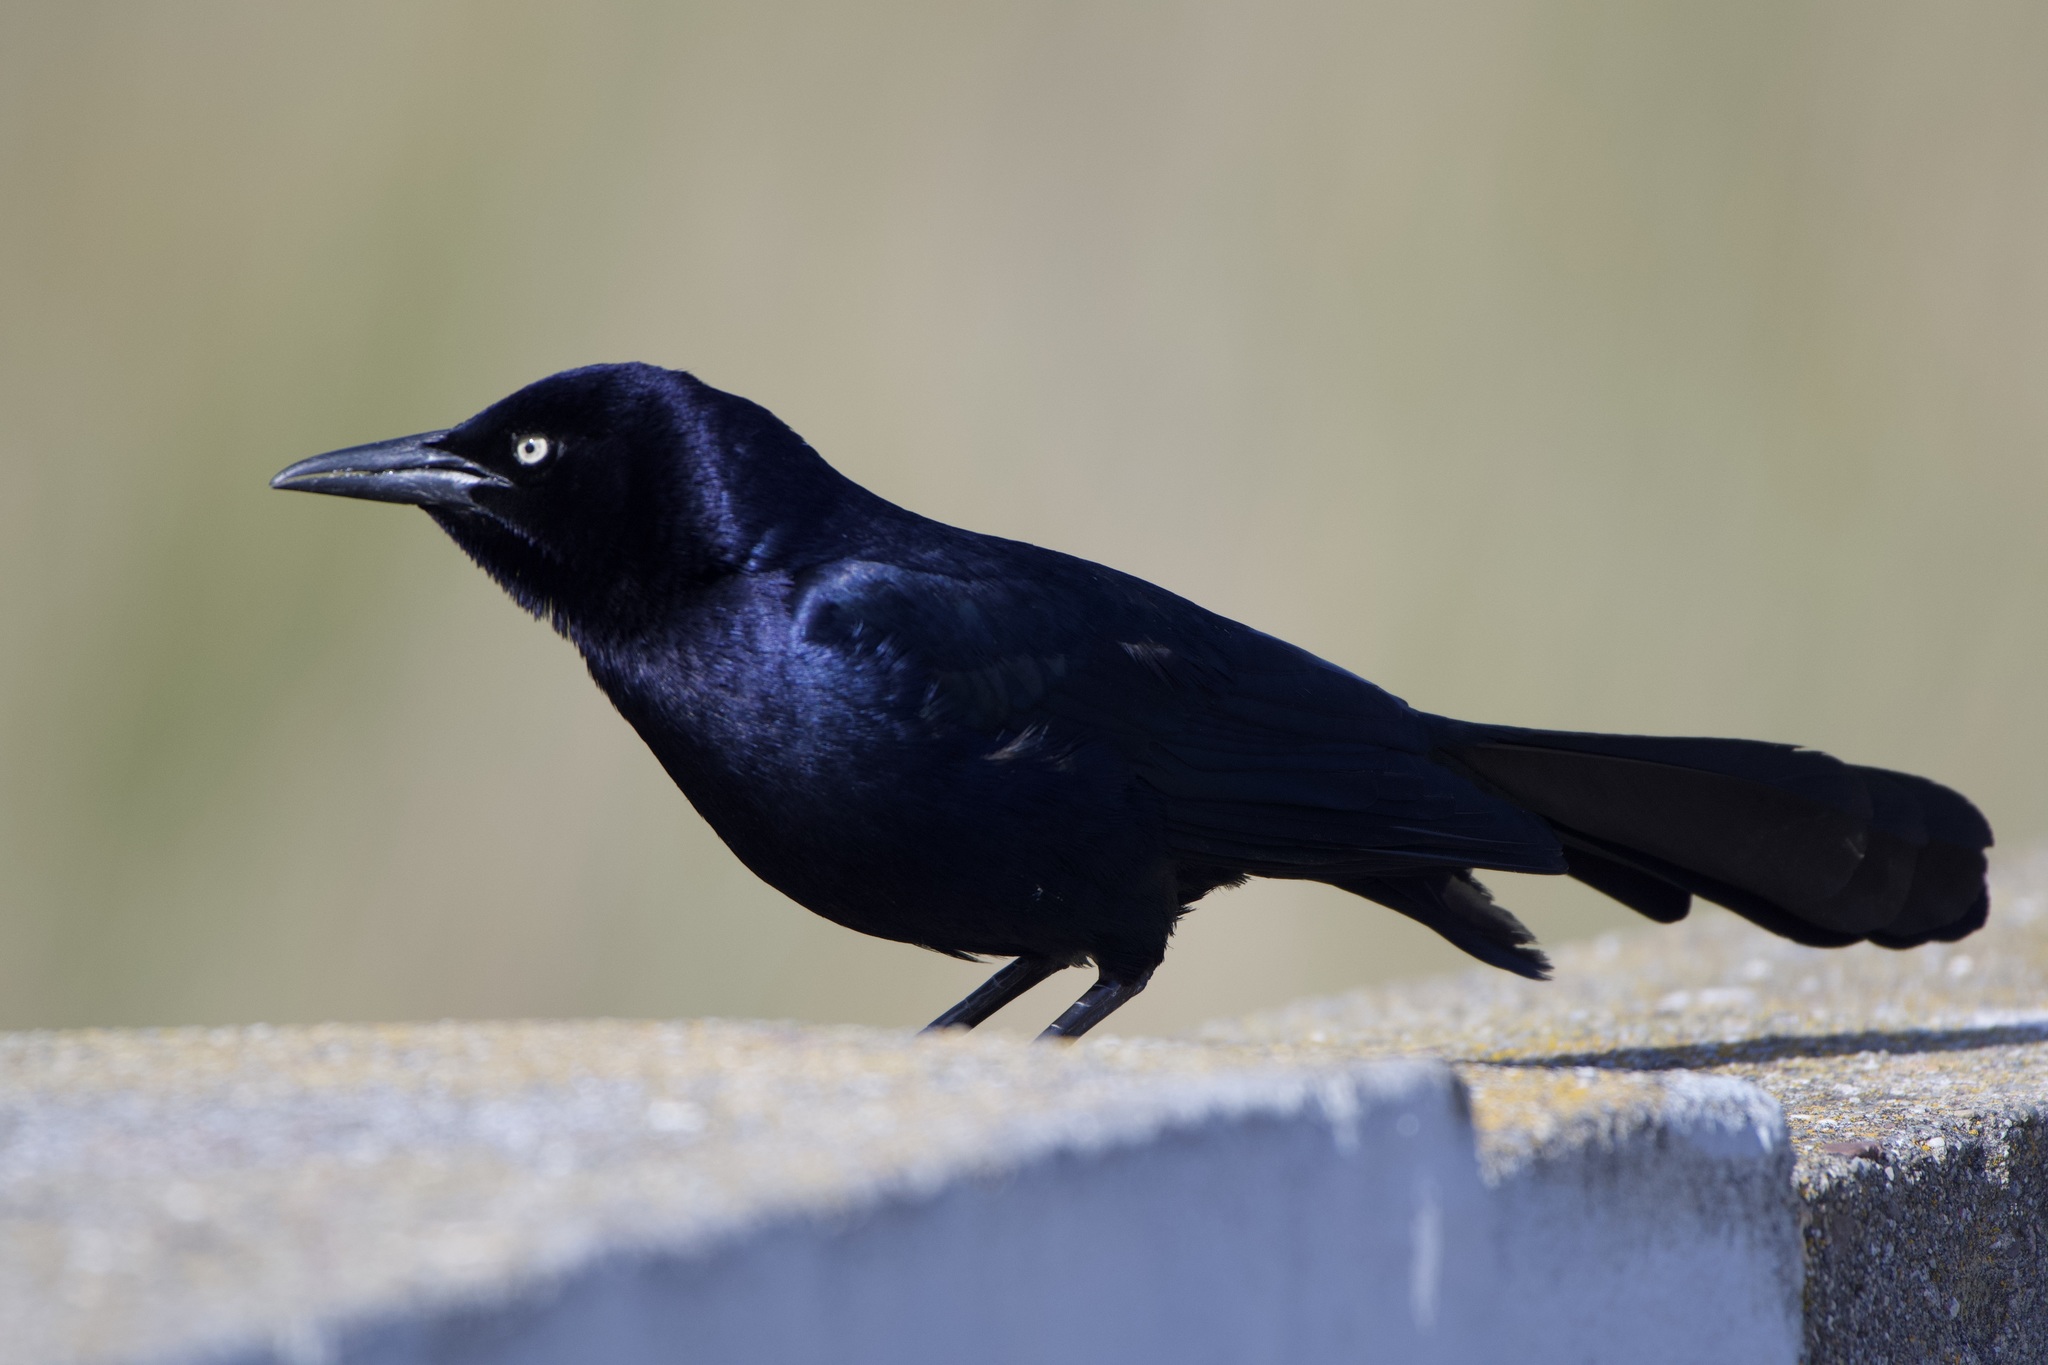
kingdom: Animalia
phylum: Chordata
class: Aves
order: Passeriformes
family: Icteridae
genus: Quiscalus
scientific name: Quiscalus mexicanus
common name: Great-tailed grackle
